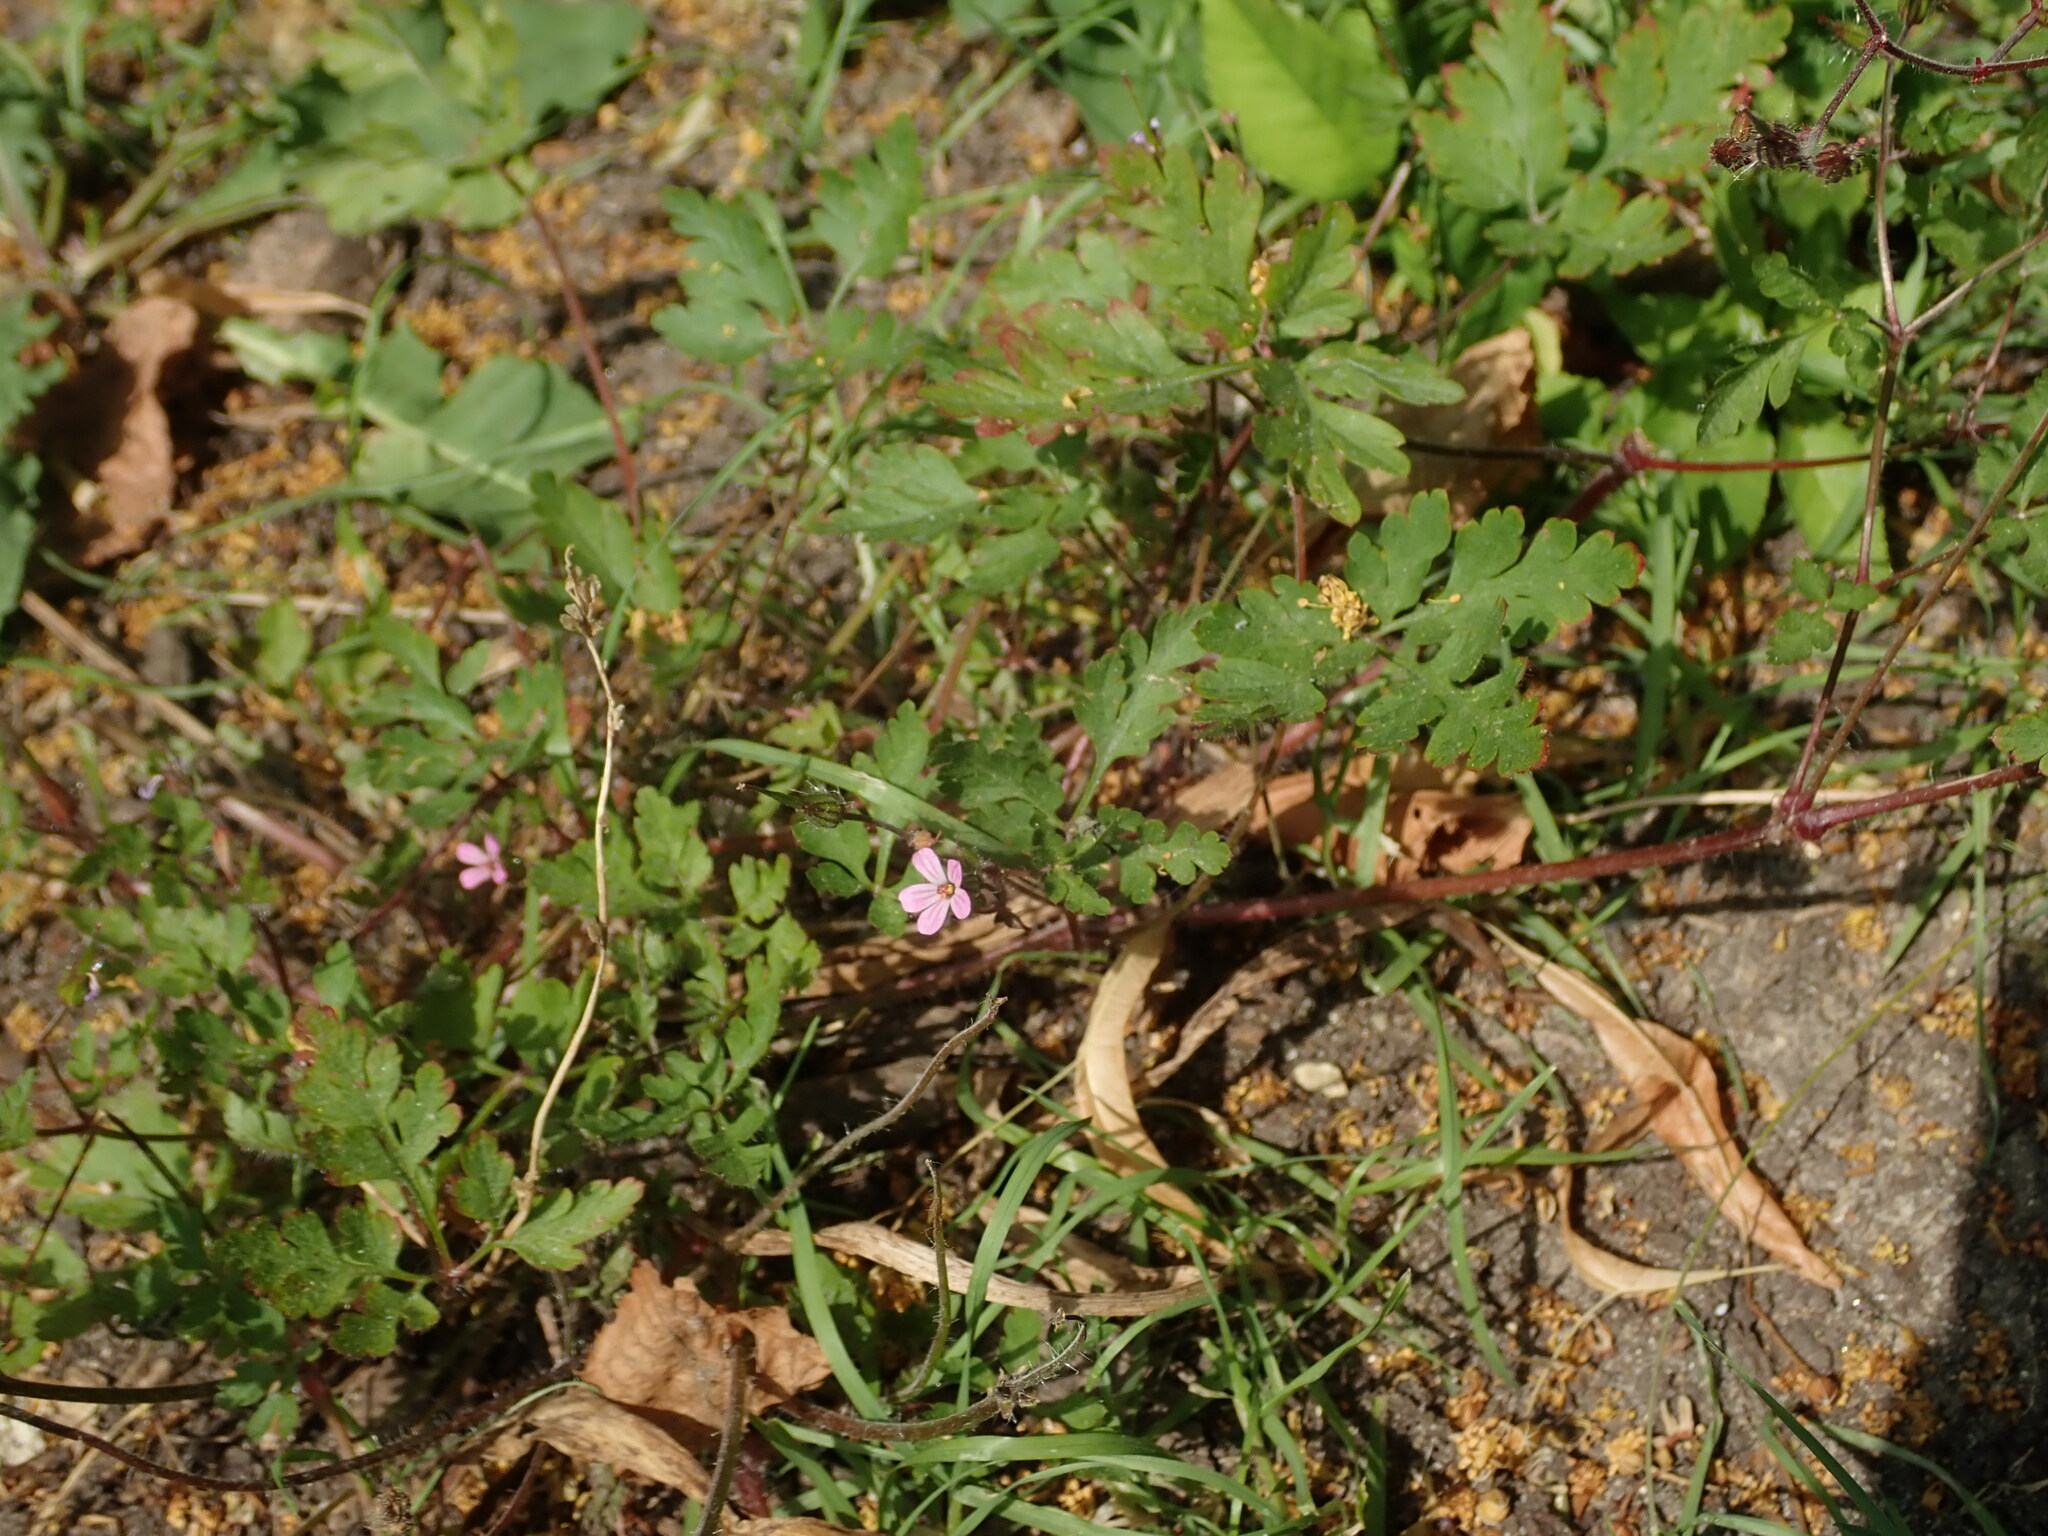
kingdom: Plantae
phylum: Tracheophyta
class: Magnoliopsida
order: Geraniales
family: Geraniaceae
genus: Geranium
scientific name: Geranium robertianum
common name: Herb-robert
